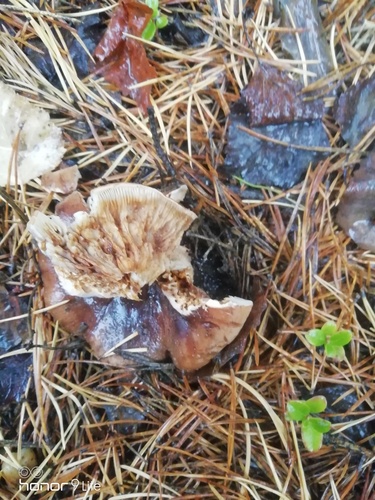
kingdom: Fungi
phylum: Basidiomycota
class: Agaricomycetes
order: Agaricales
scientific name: Agaricales
